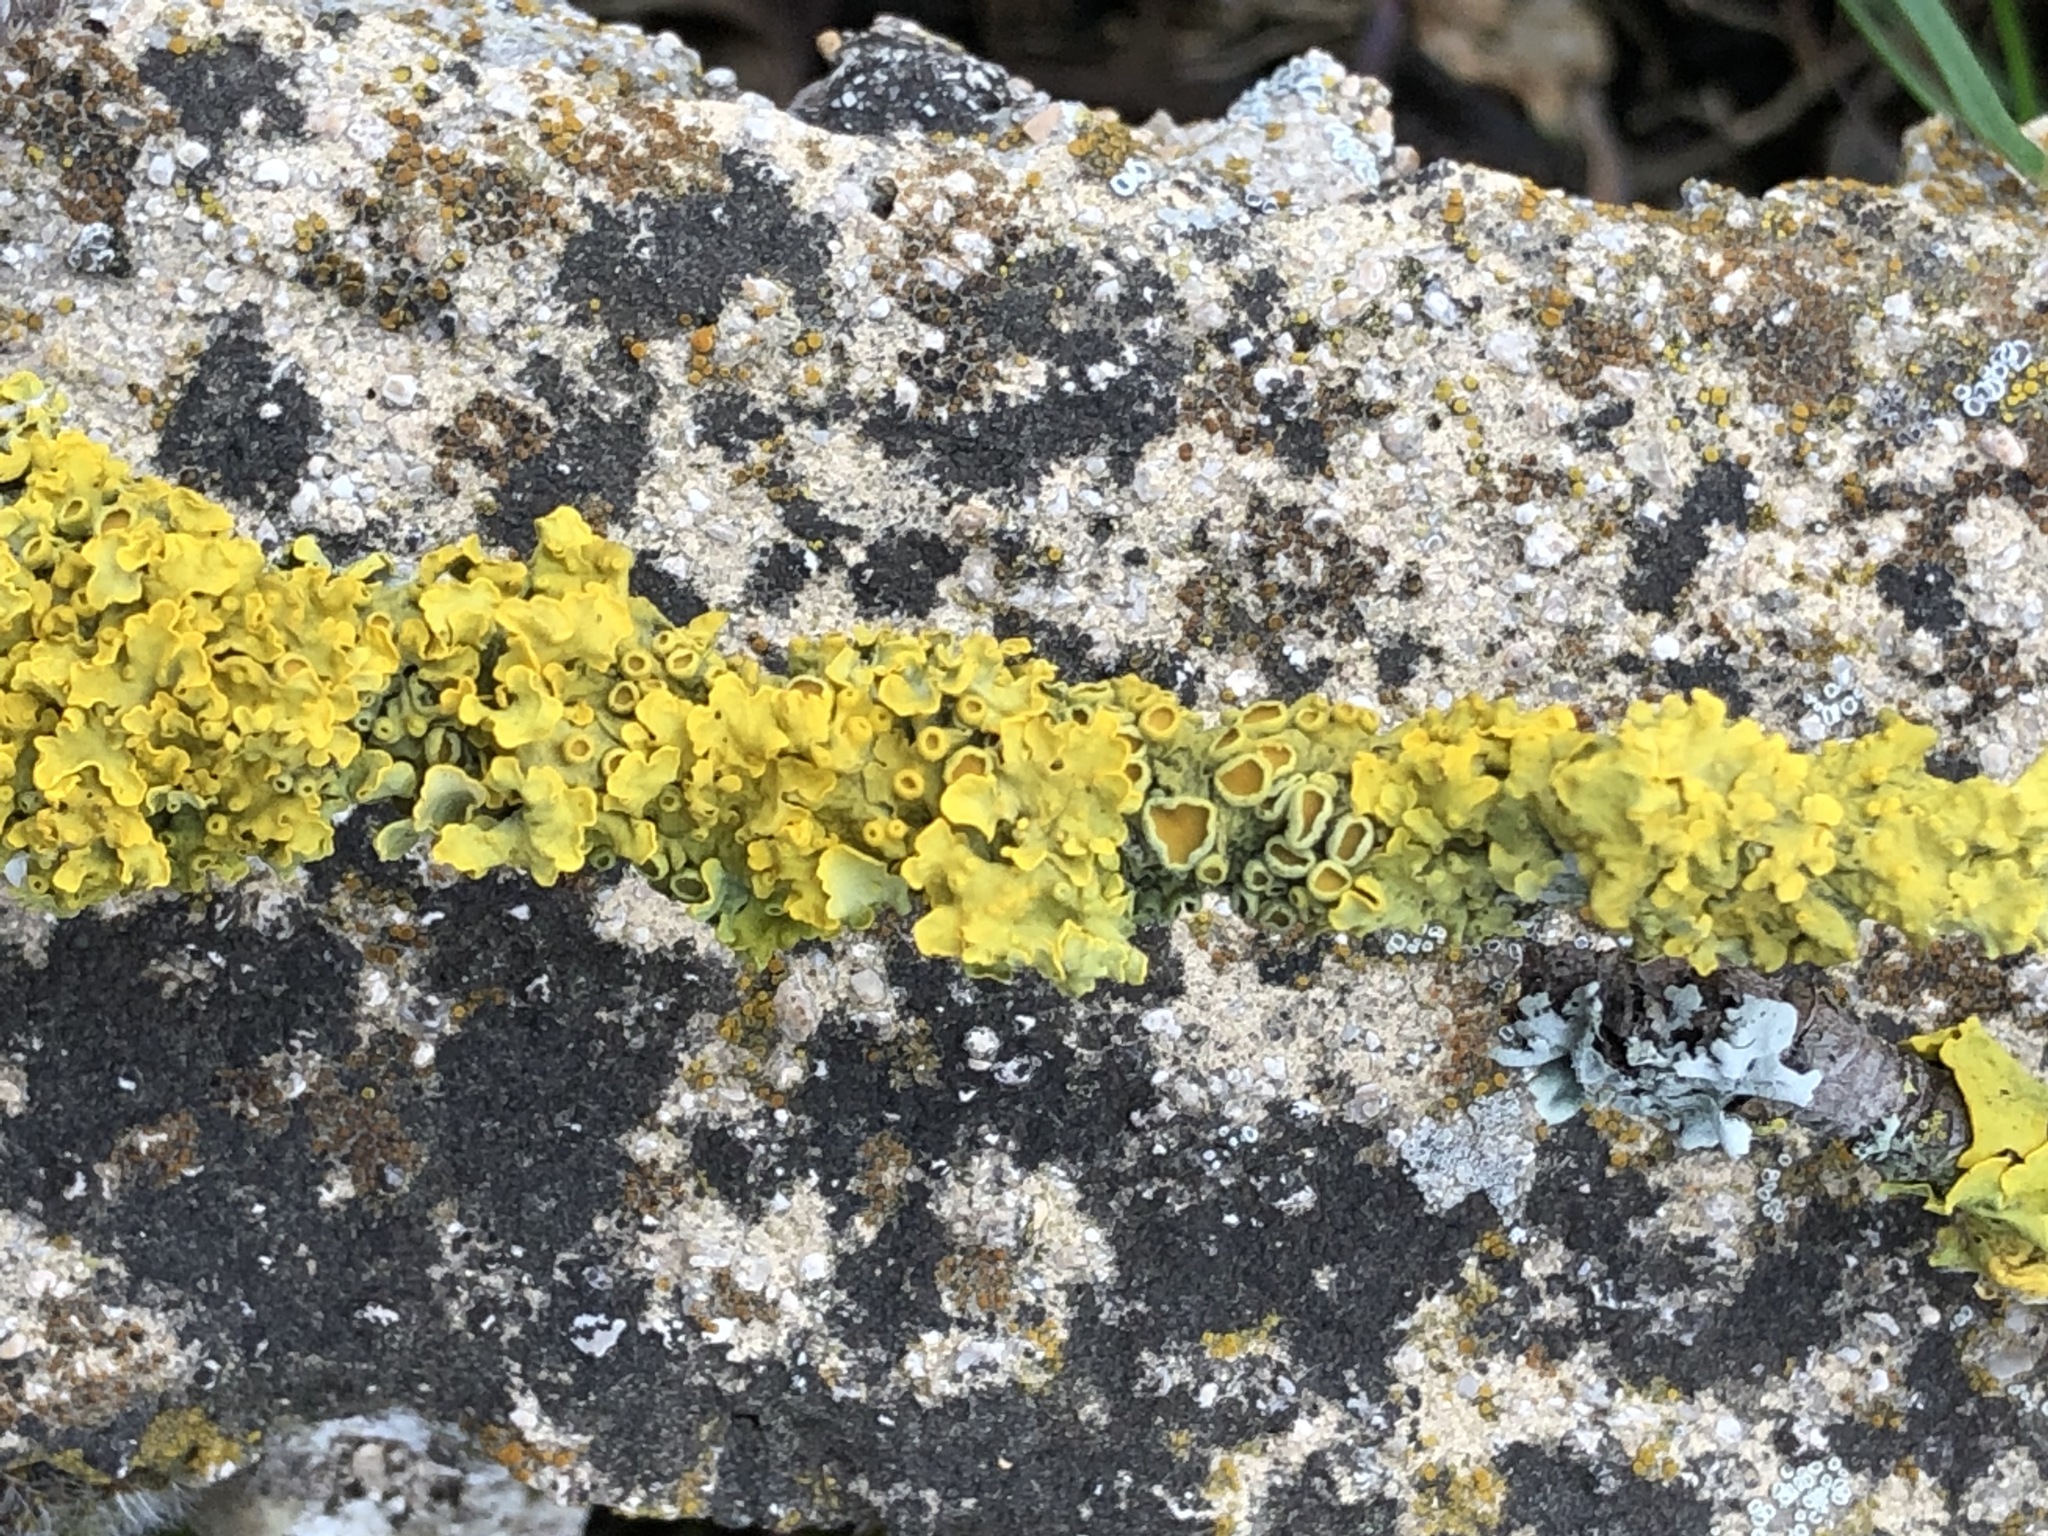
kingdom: Fungi
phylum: Ascomycota
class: Lecanoromycetes
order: Teloschistales
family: Teloschistaceae
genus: Xanthoria
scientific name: Xanthoria parietina
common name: Common orange lichen
